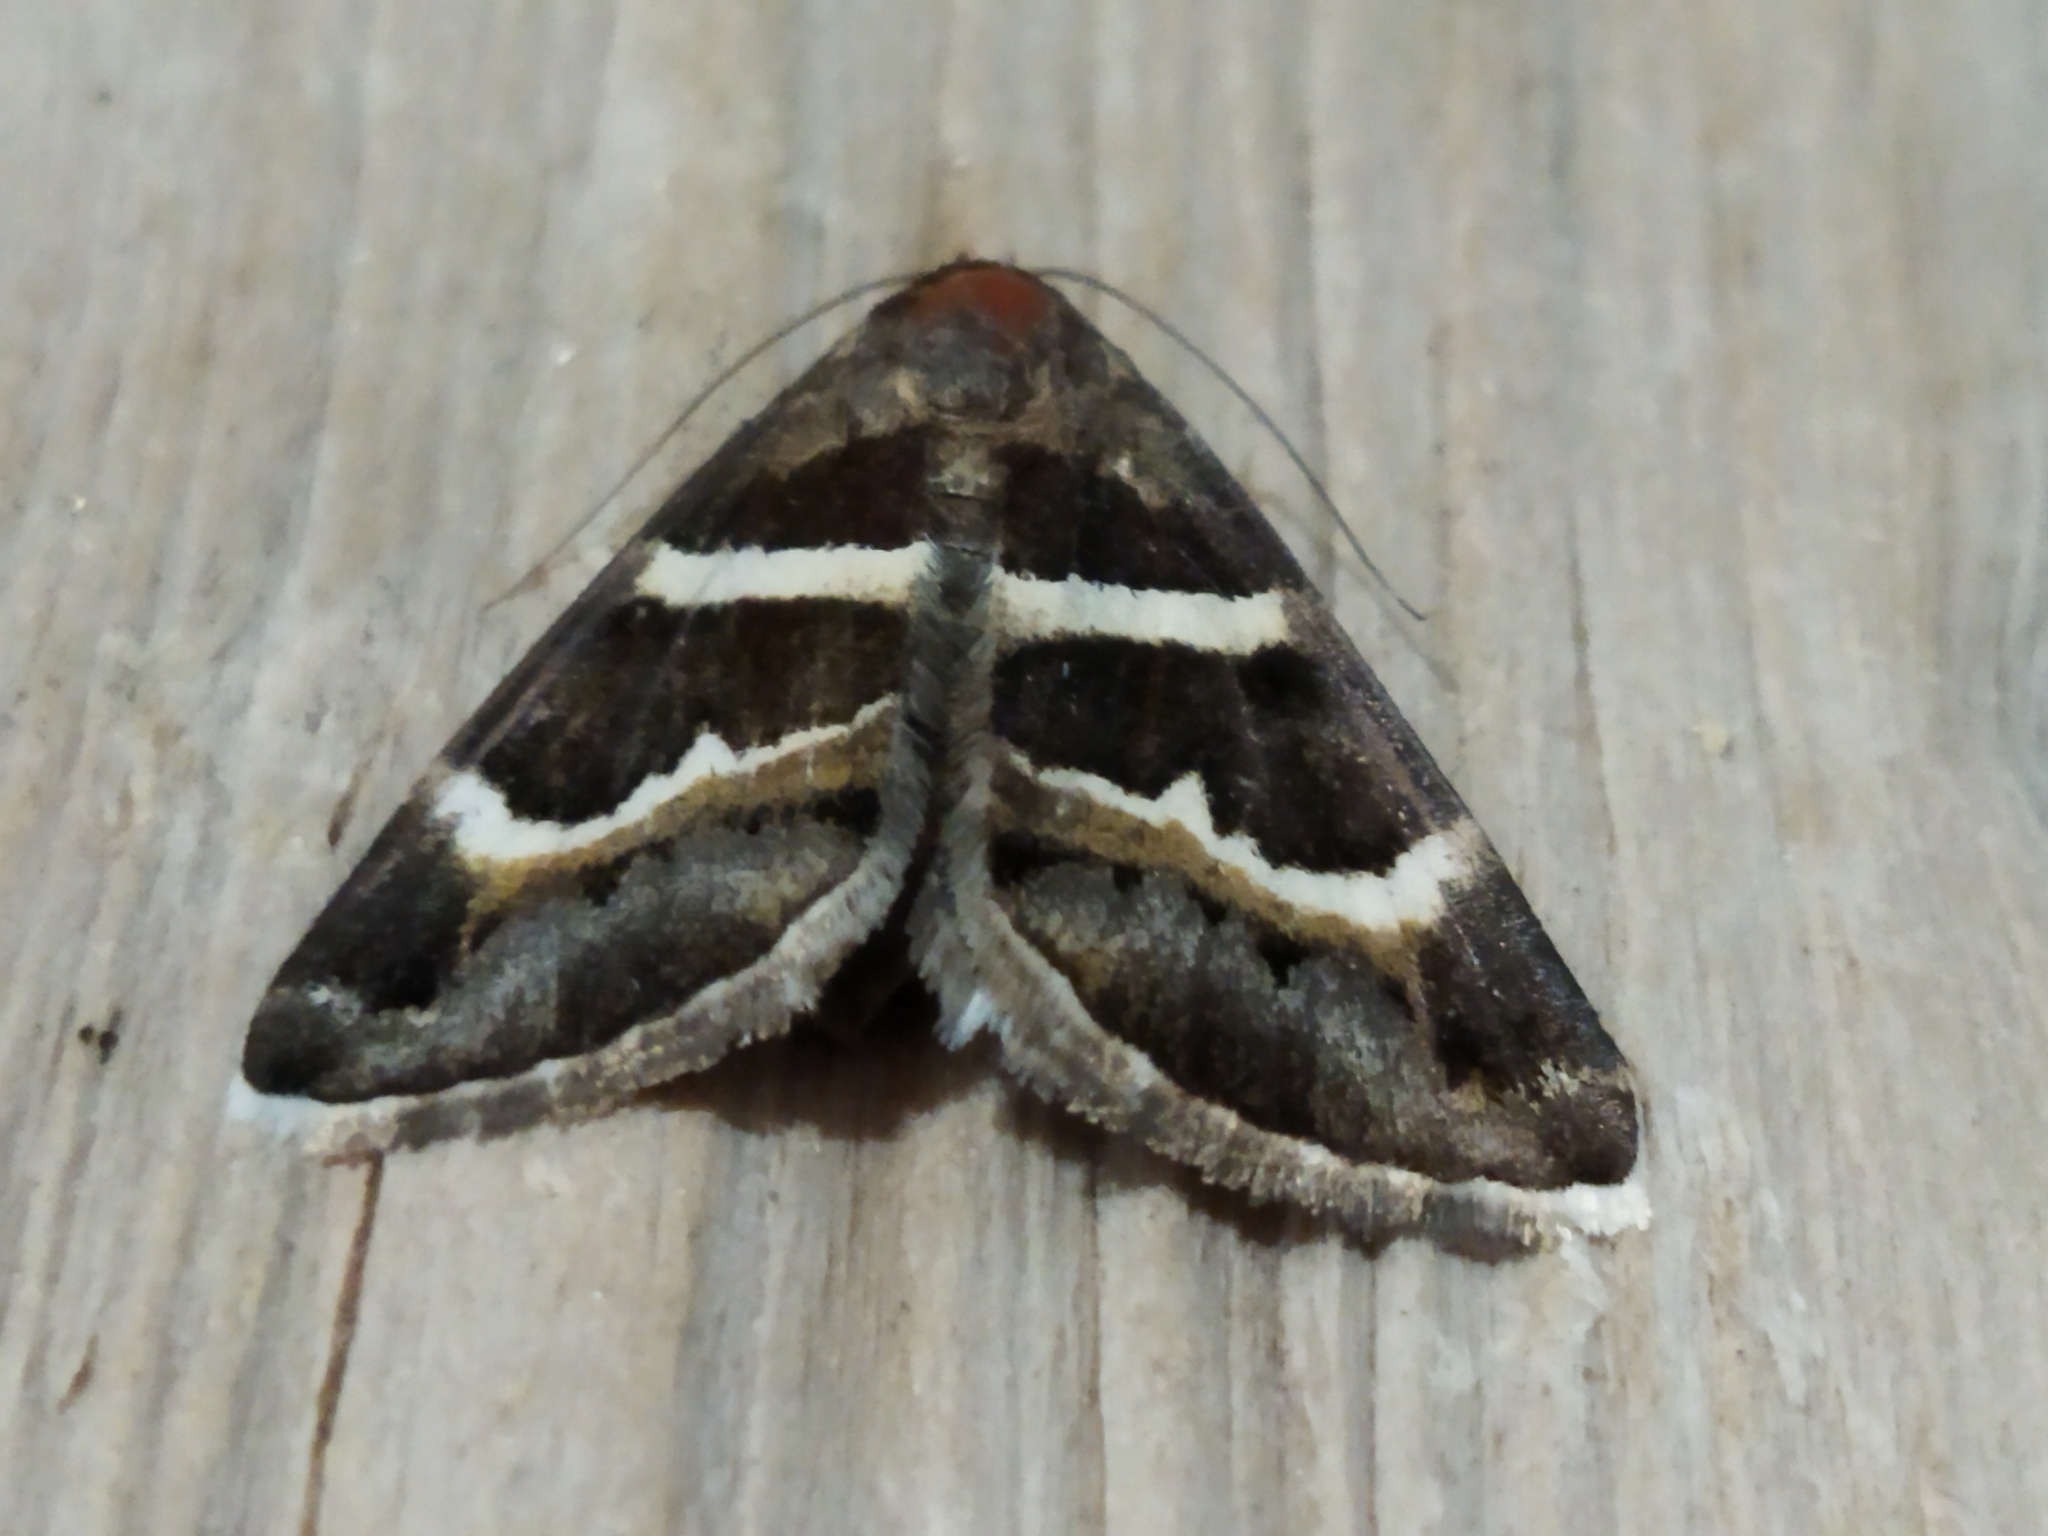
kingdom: Animalia
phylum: Arthropoda
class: Insecta
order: Lepidoptera
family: Erebidae
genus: Grammodes
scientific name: Grammodes stolida
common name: Geometrician
